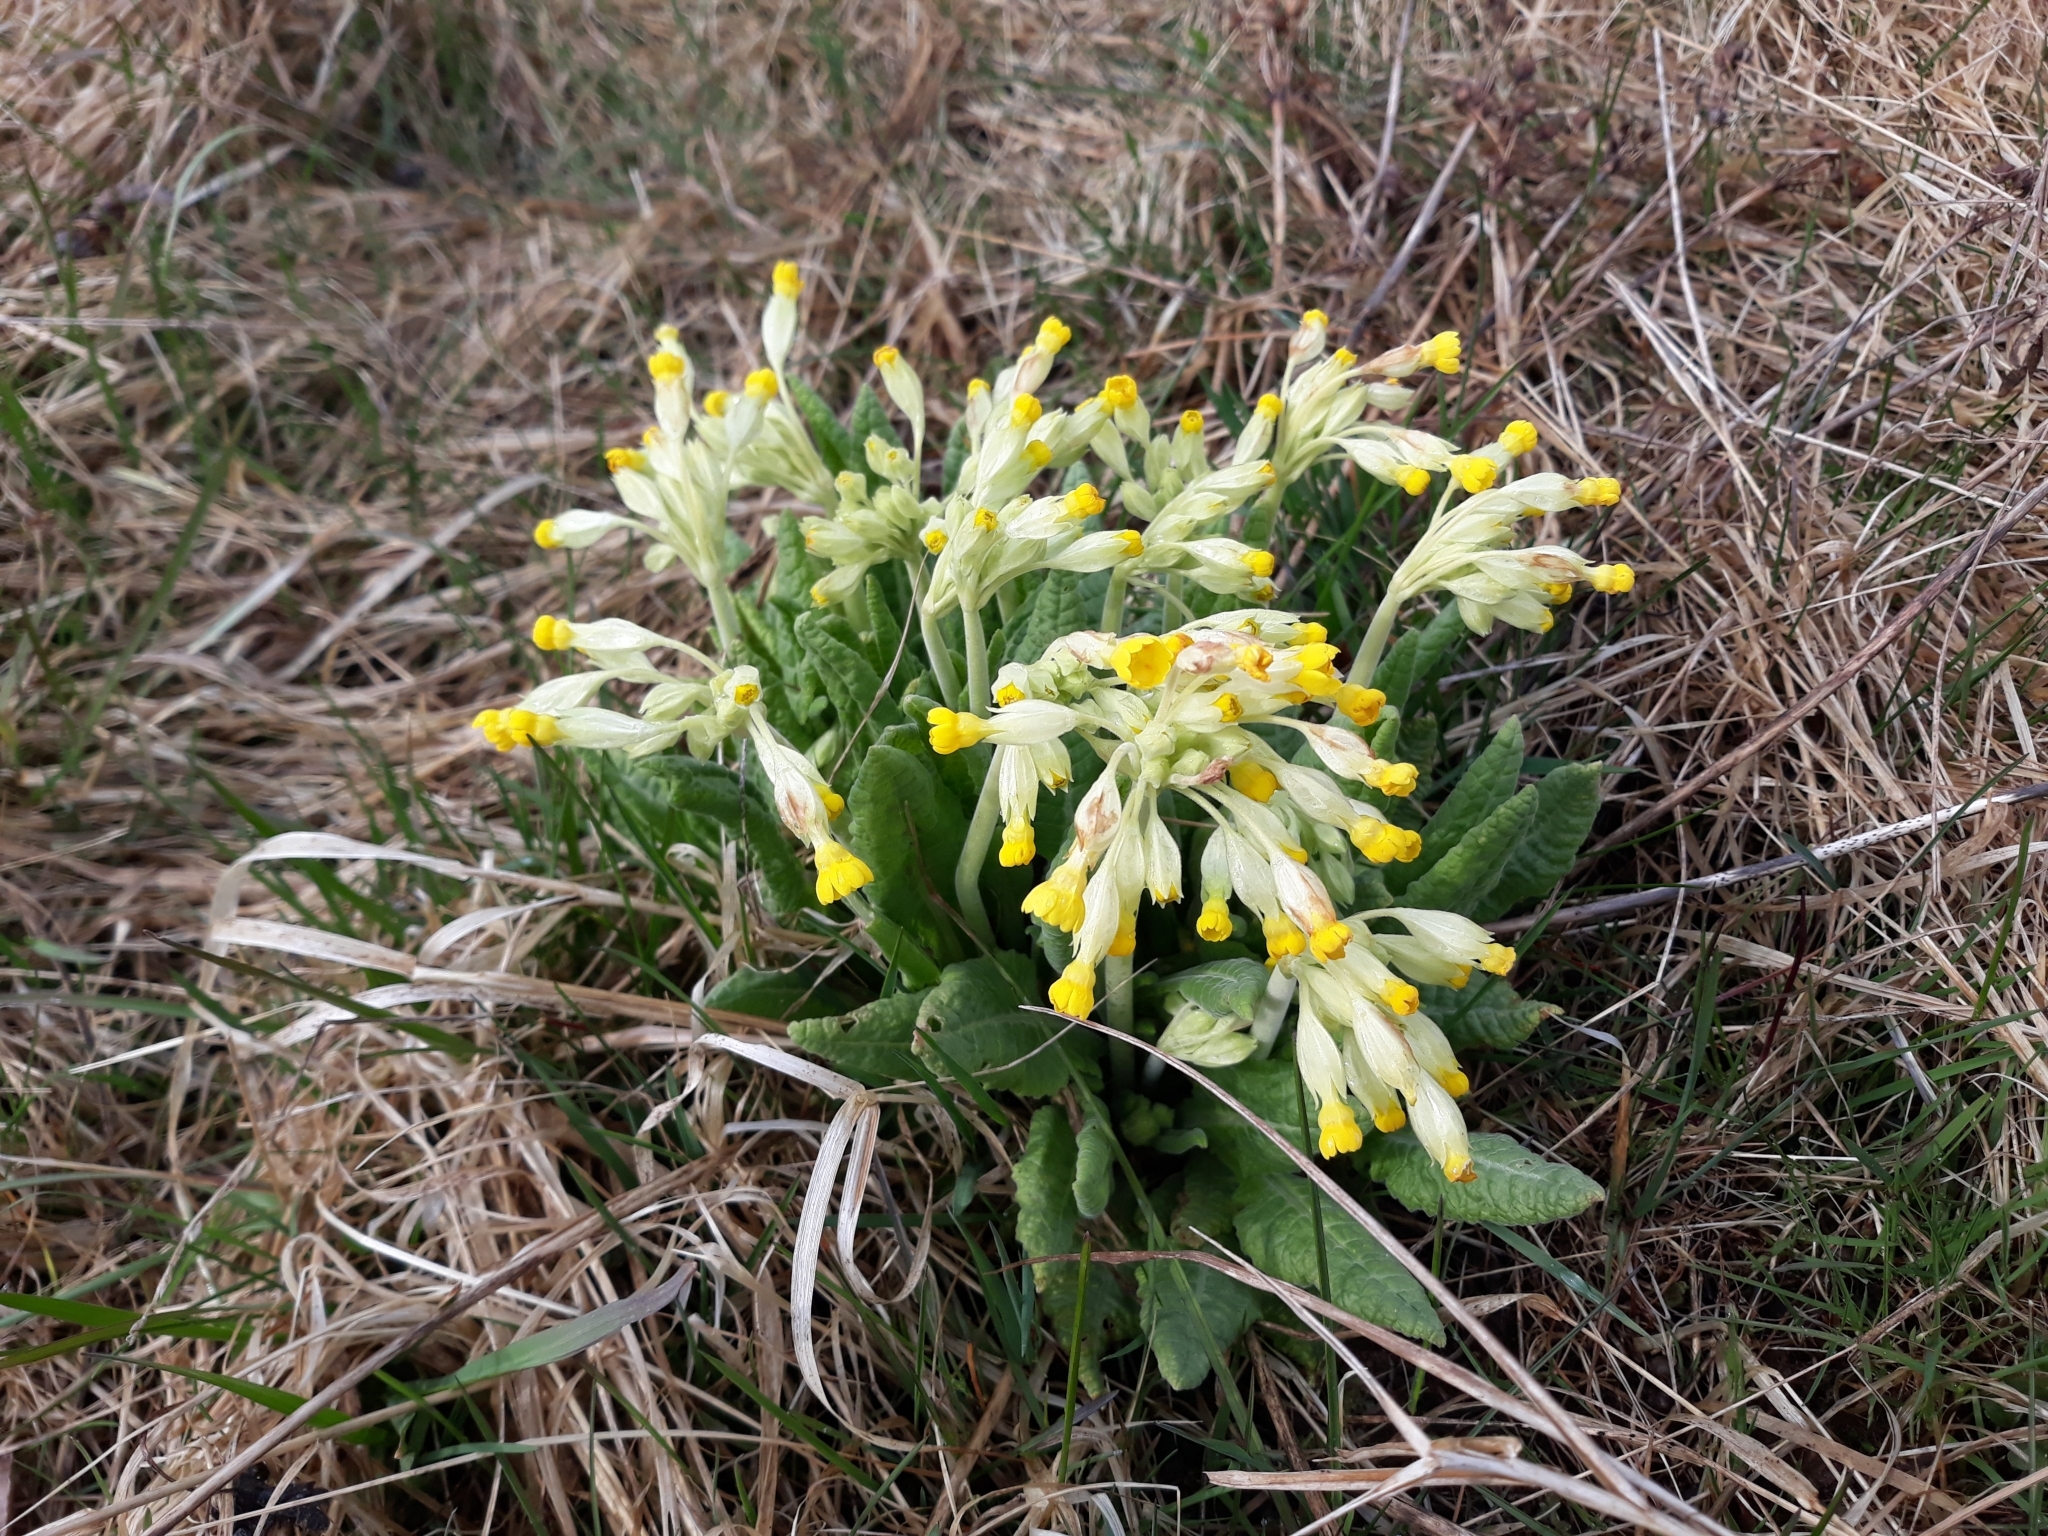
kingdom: Plantae
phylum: Tracheophyta
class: Magnoliopsida
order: Ericales
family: Primulaceae
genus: Primula
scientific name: Primula veris
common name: Cowslip
